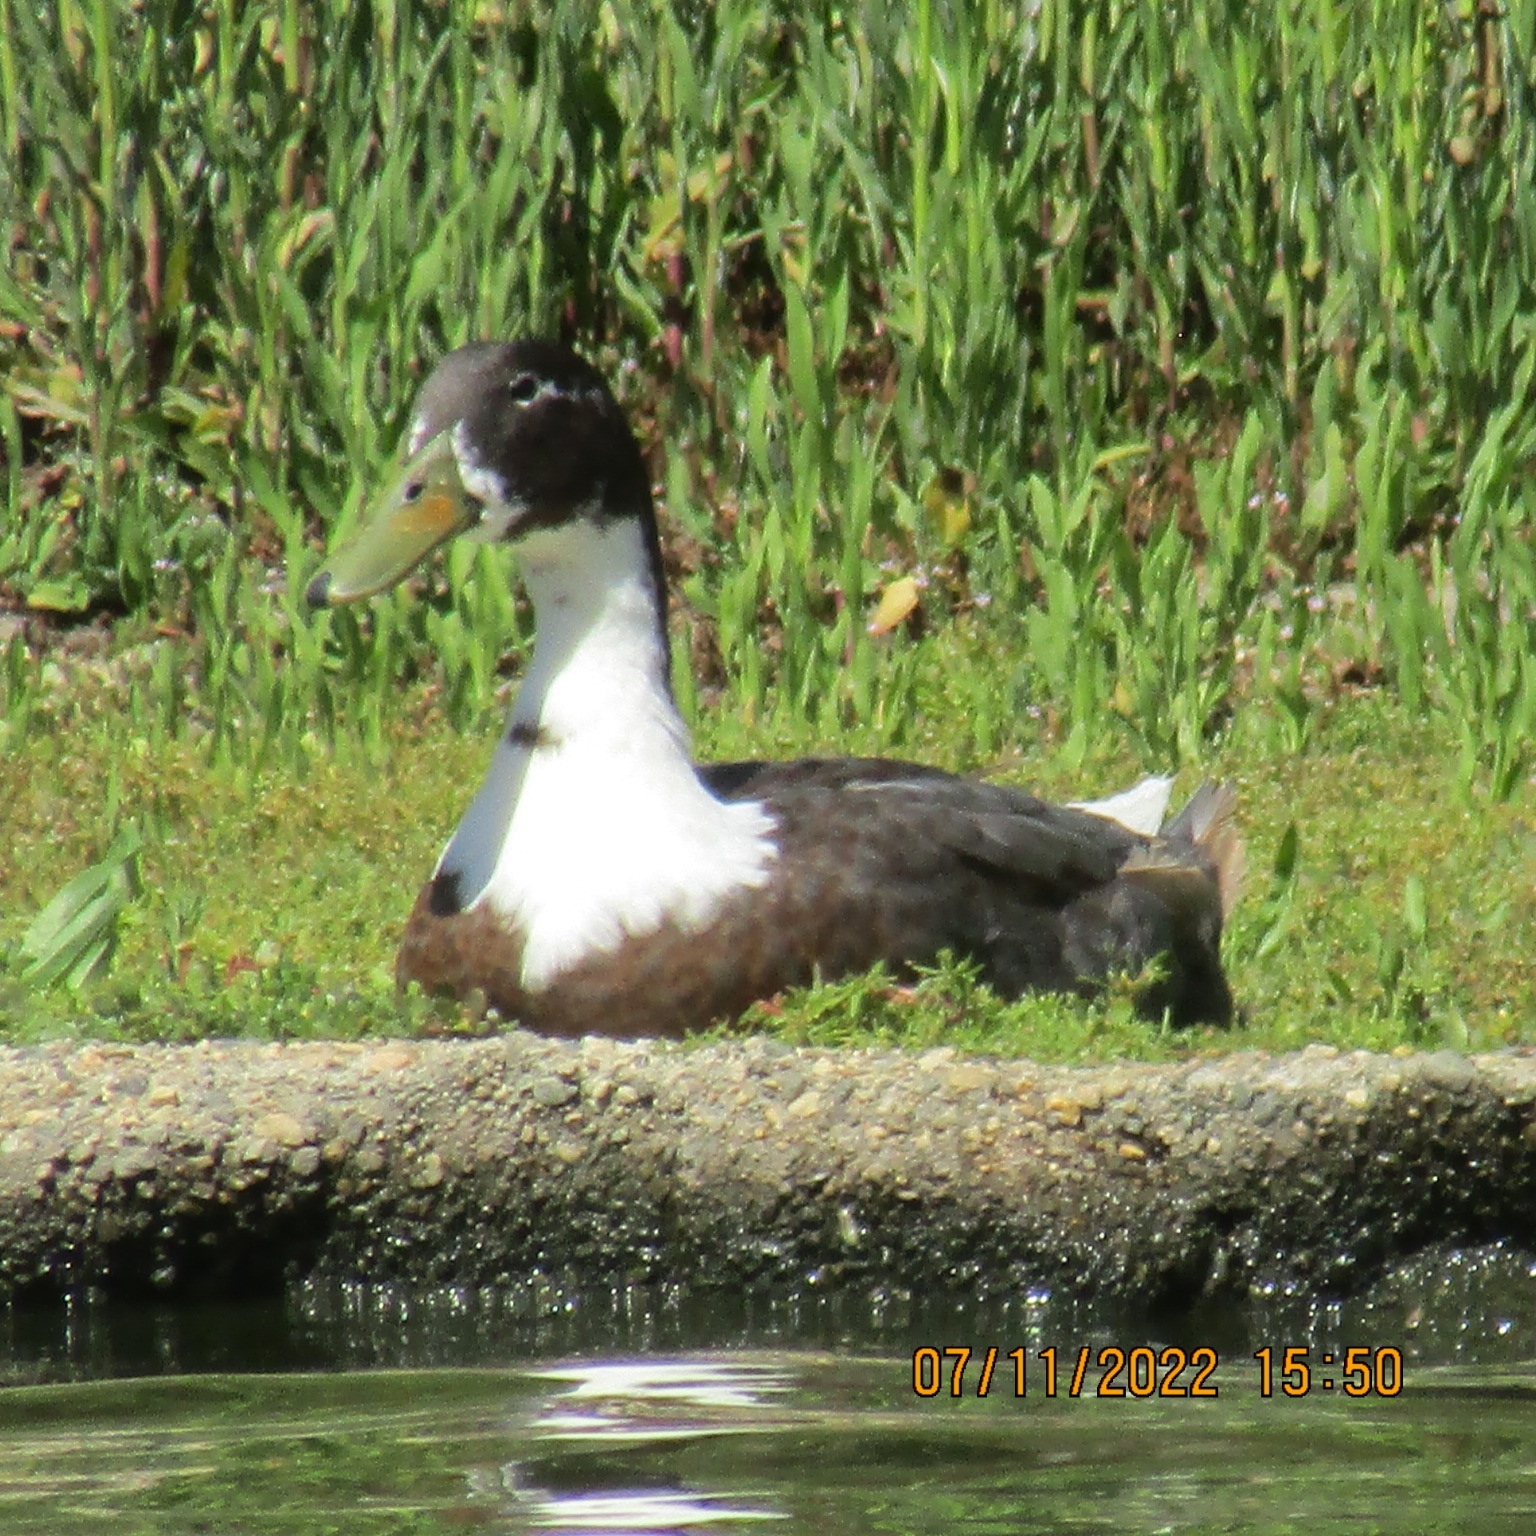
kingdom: Animalia
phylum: Chordata
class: Aves
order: Anseriformes
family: Anatidae
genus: Anas
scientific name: Anas platyrhynchos
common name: Mallard
